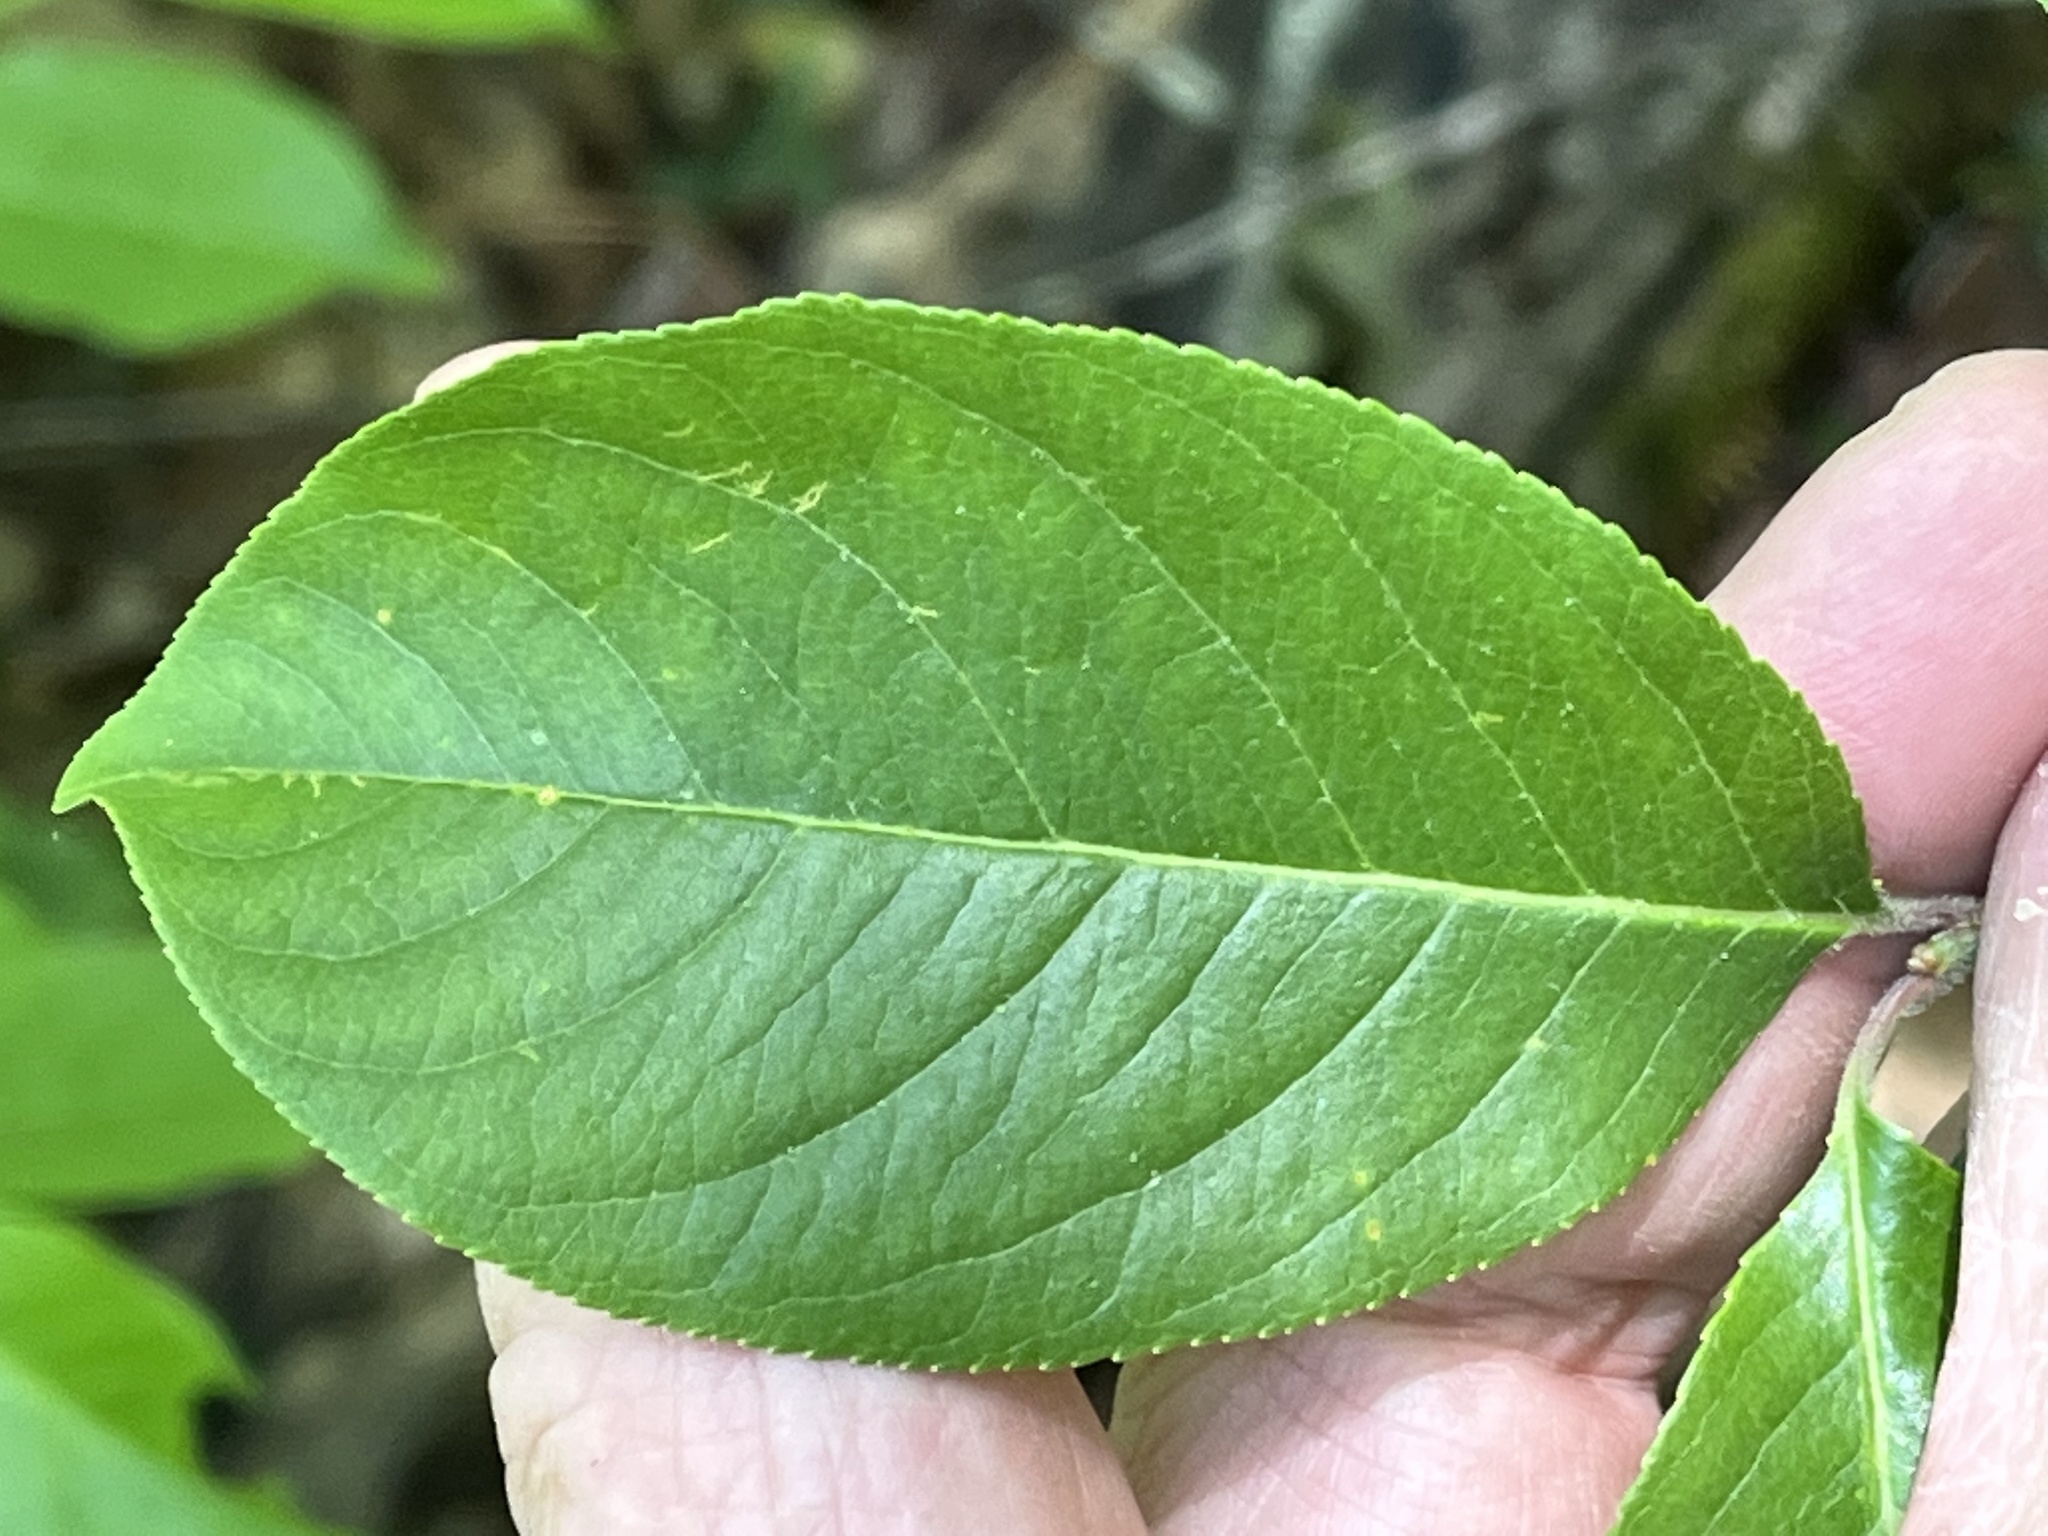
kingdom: Plantae
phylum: Tracheophyta
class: Magnoliopsida
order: Rosales
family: Rosaceae
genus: Prunus
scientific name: Prunus alabamensis
